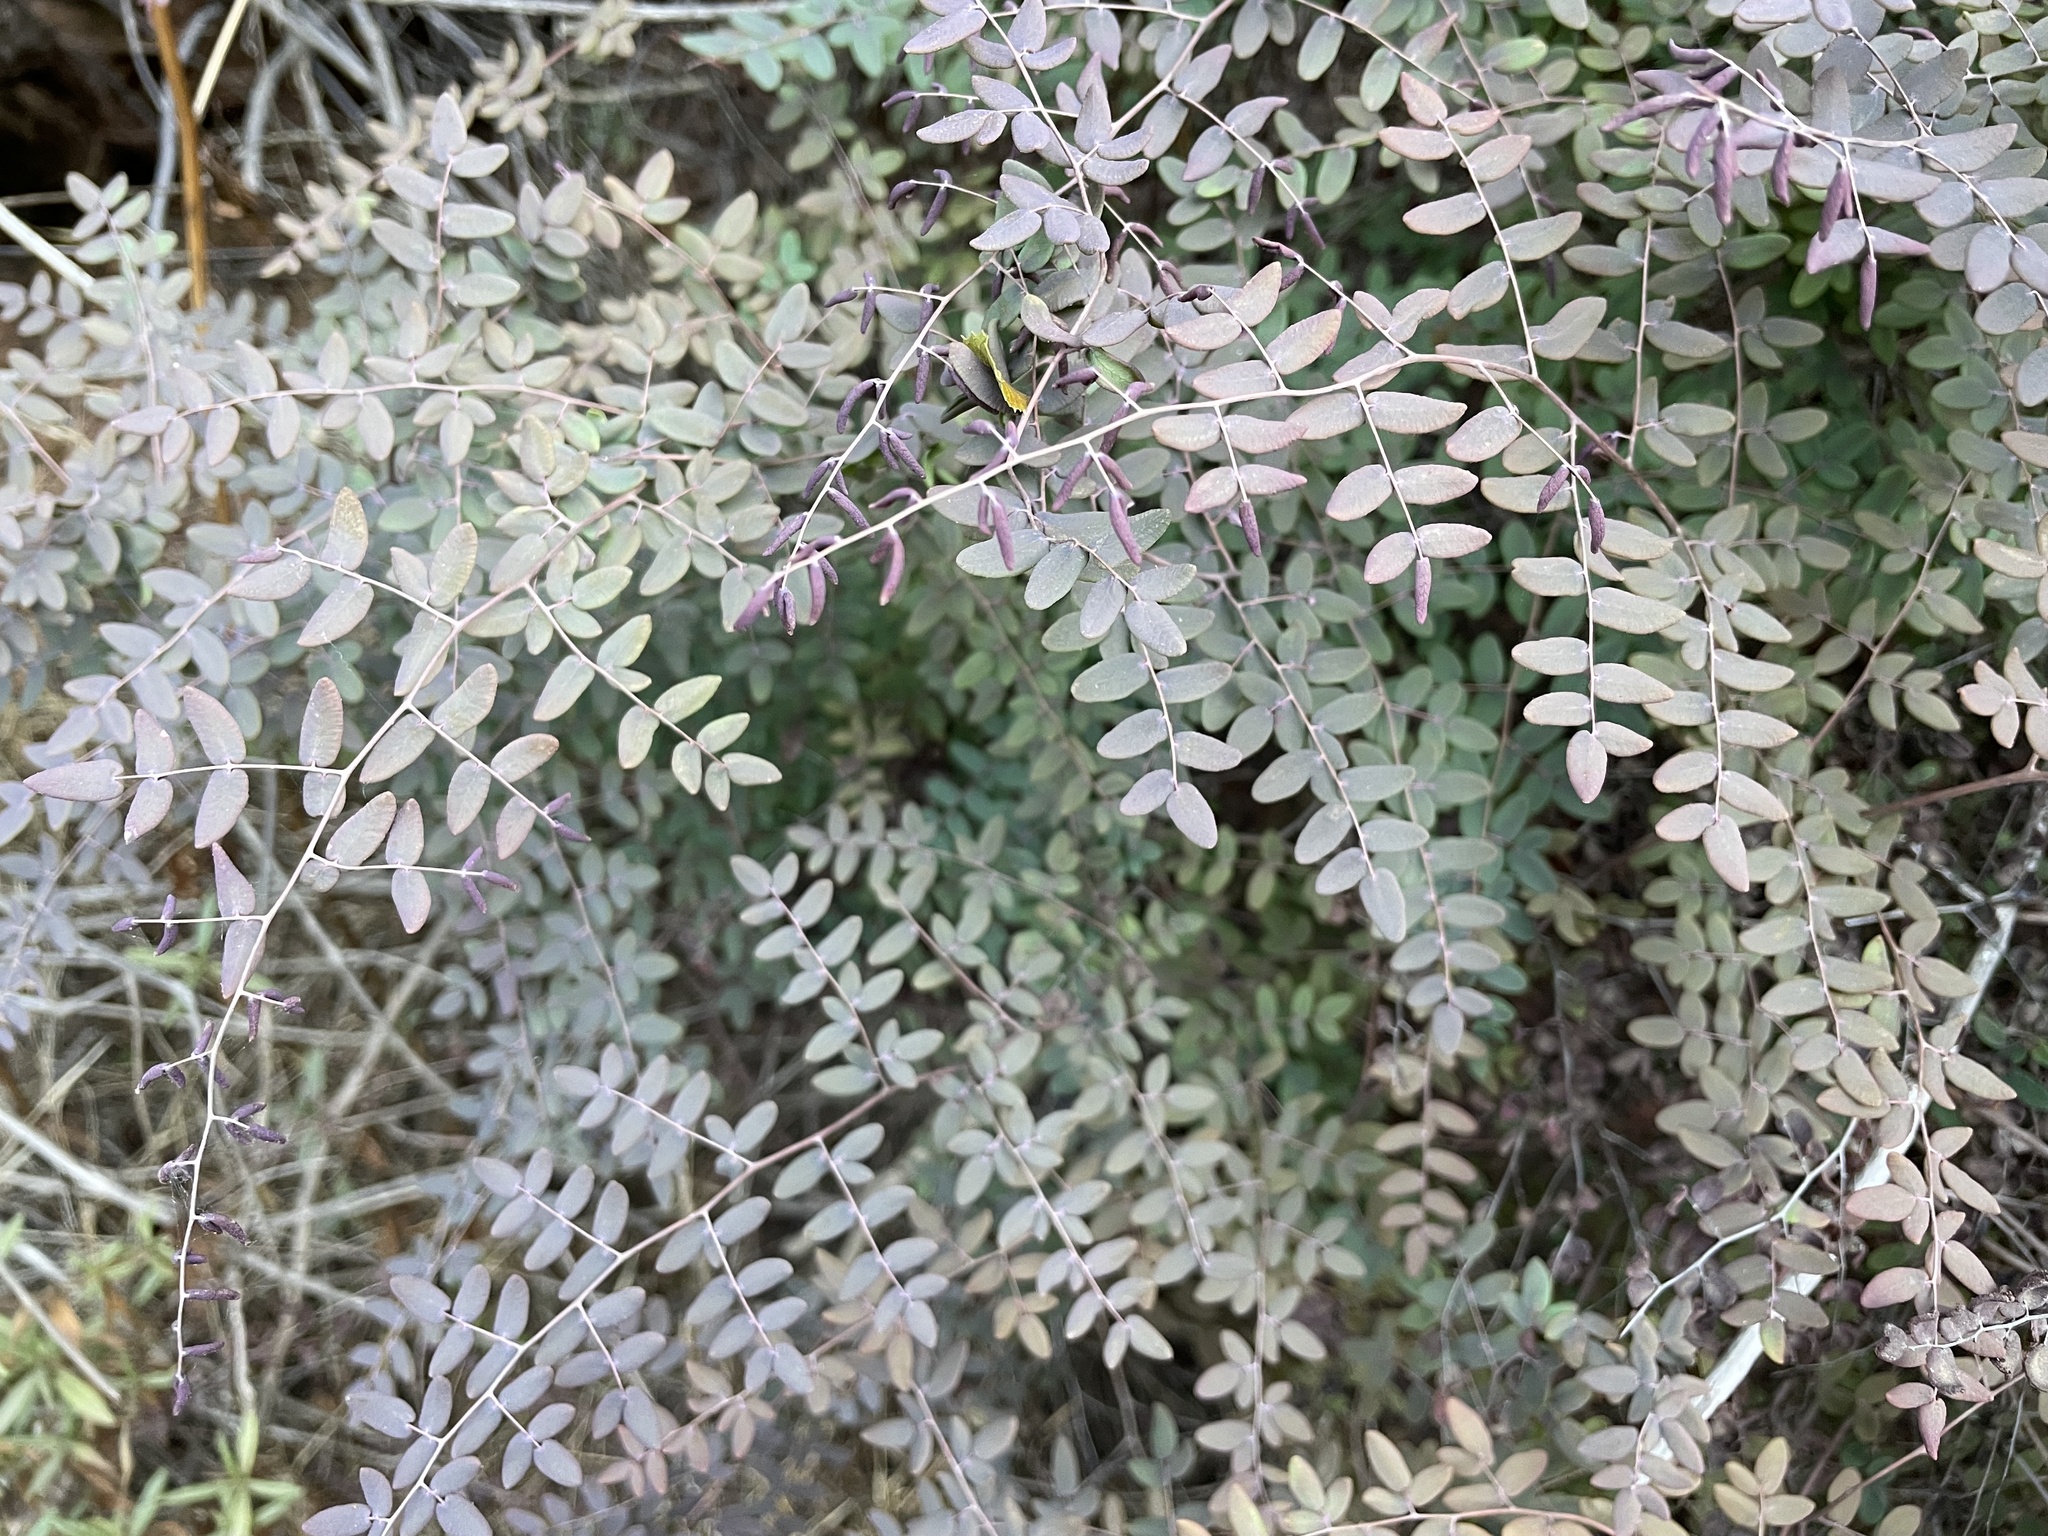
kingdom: Plantae
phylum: Tracheophyta
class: Polypodiopsida
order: Polypodiales
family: Pteridaceae
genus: Pellaea
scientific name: Pellaea andromedifolia
